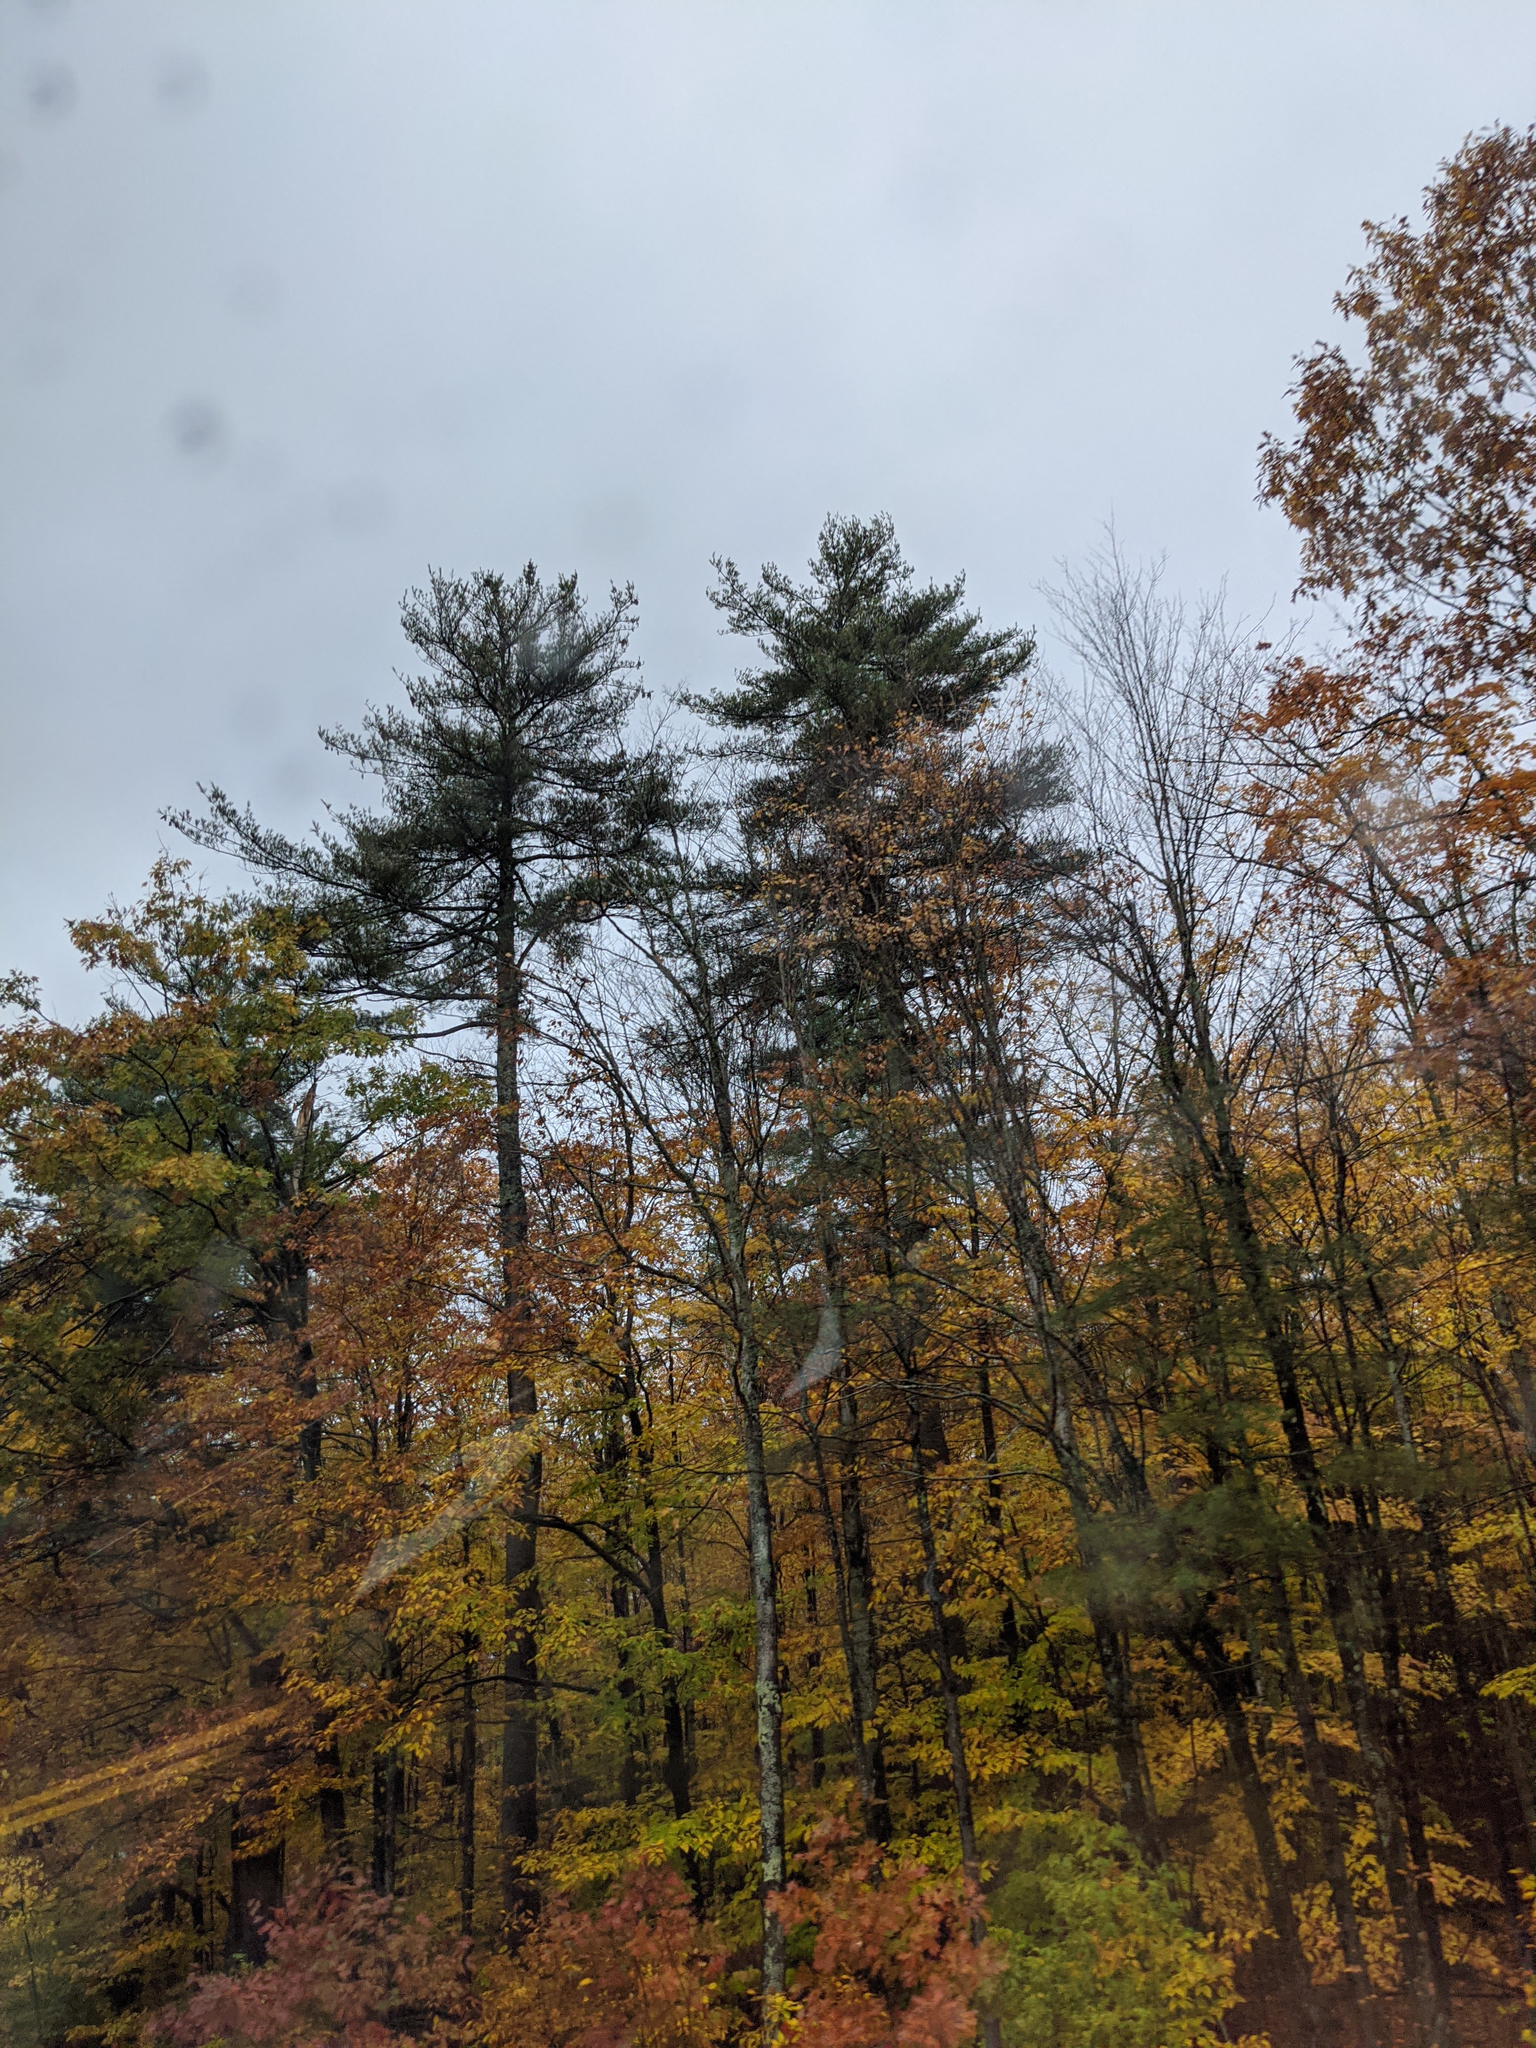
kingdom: Plantae
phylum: Tracheophyta
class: Pinopsida
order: Pinales
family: Pinaceae
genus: Pinus
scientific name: Pinus strobus
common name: Weymouth pine
